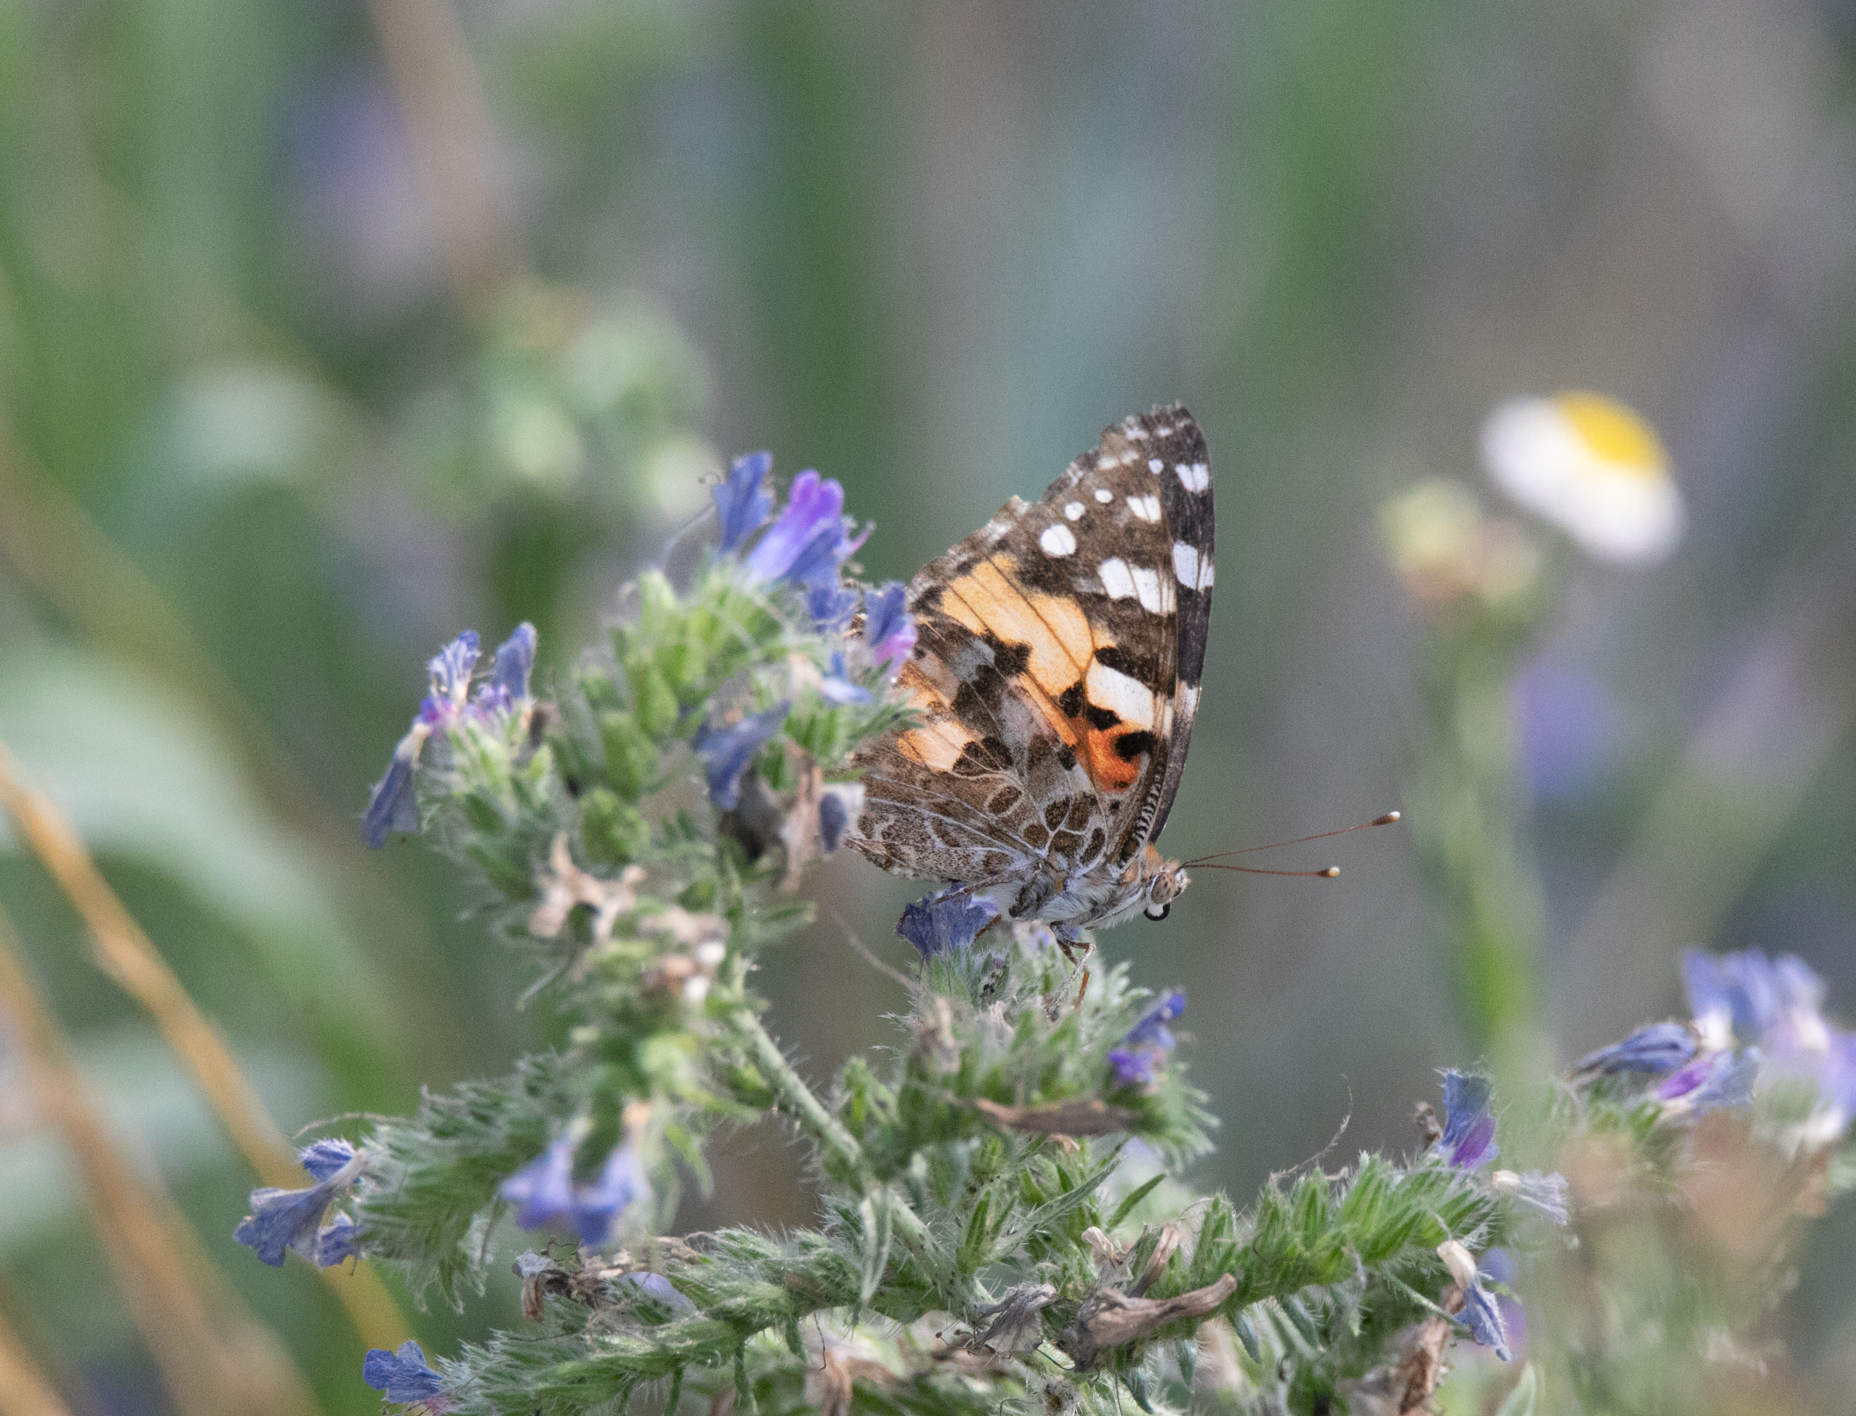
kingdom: Animalia
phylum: Arthropoda
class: Insecta
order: Lepidoptera
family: Nymphalidae
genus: Vanessa
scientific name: Vanessa cardui
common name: Painted lady
